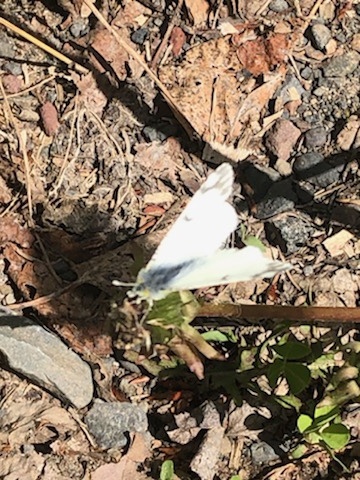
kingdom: Animalia
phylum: Arthropoda
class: Insecta
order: Lepidoptera
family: Pieridae
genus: Euchloe
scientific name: Euchloe ausonides
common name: Creamy marblewing
